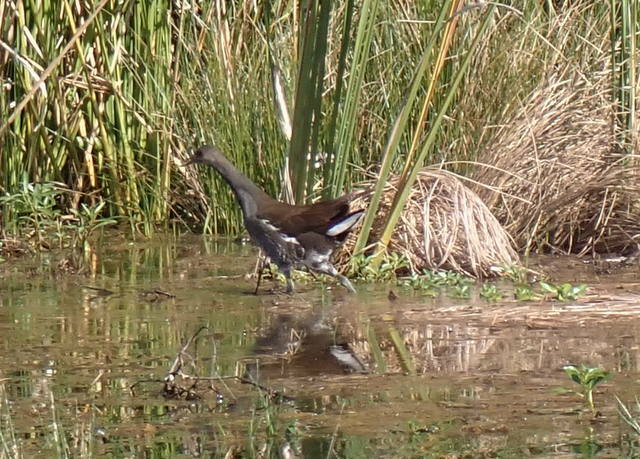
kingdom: Animalia
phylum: Chordata
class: Aves
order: Gruiformes
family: Rallidae
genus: Gallinula
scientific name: Gallinula chloropus
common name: Common moorhen
